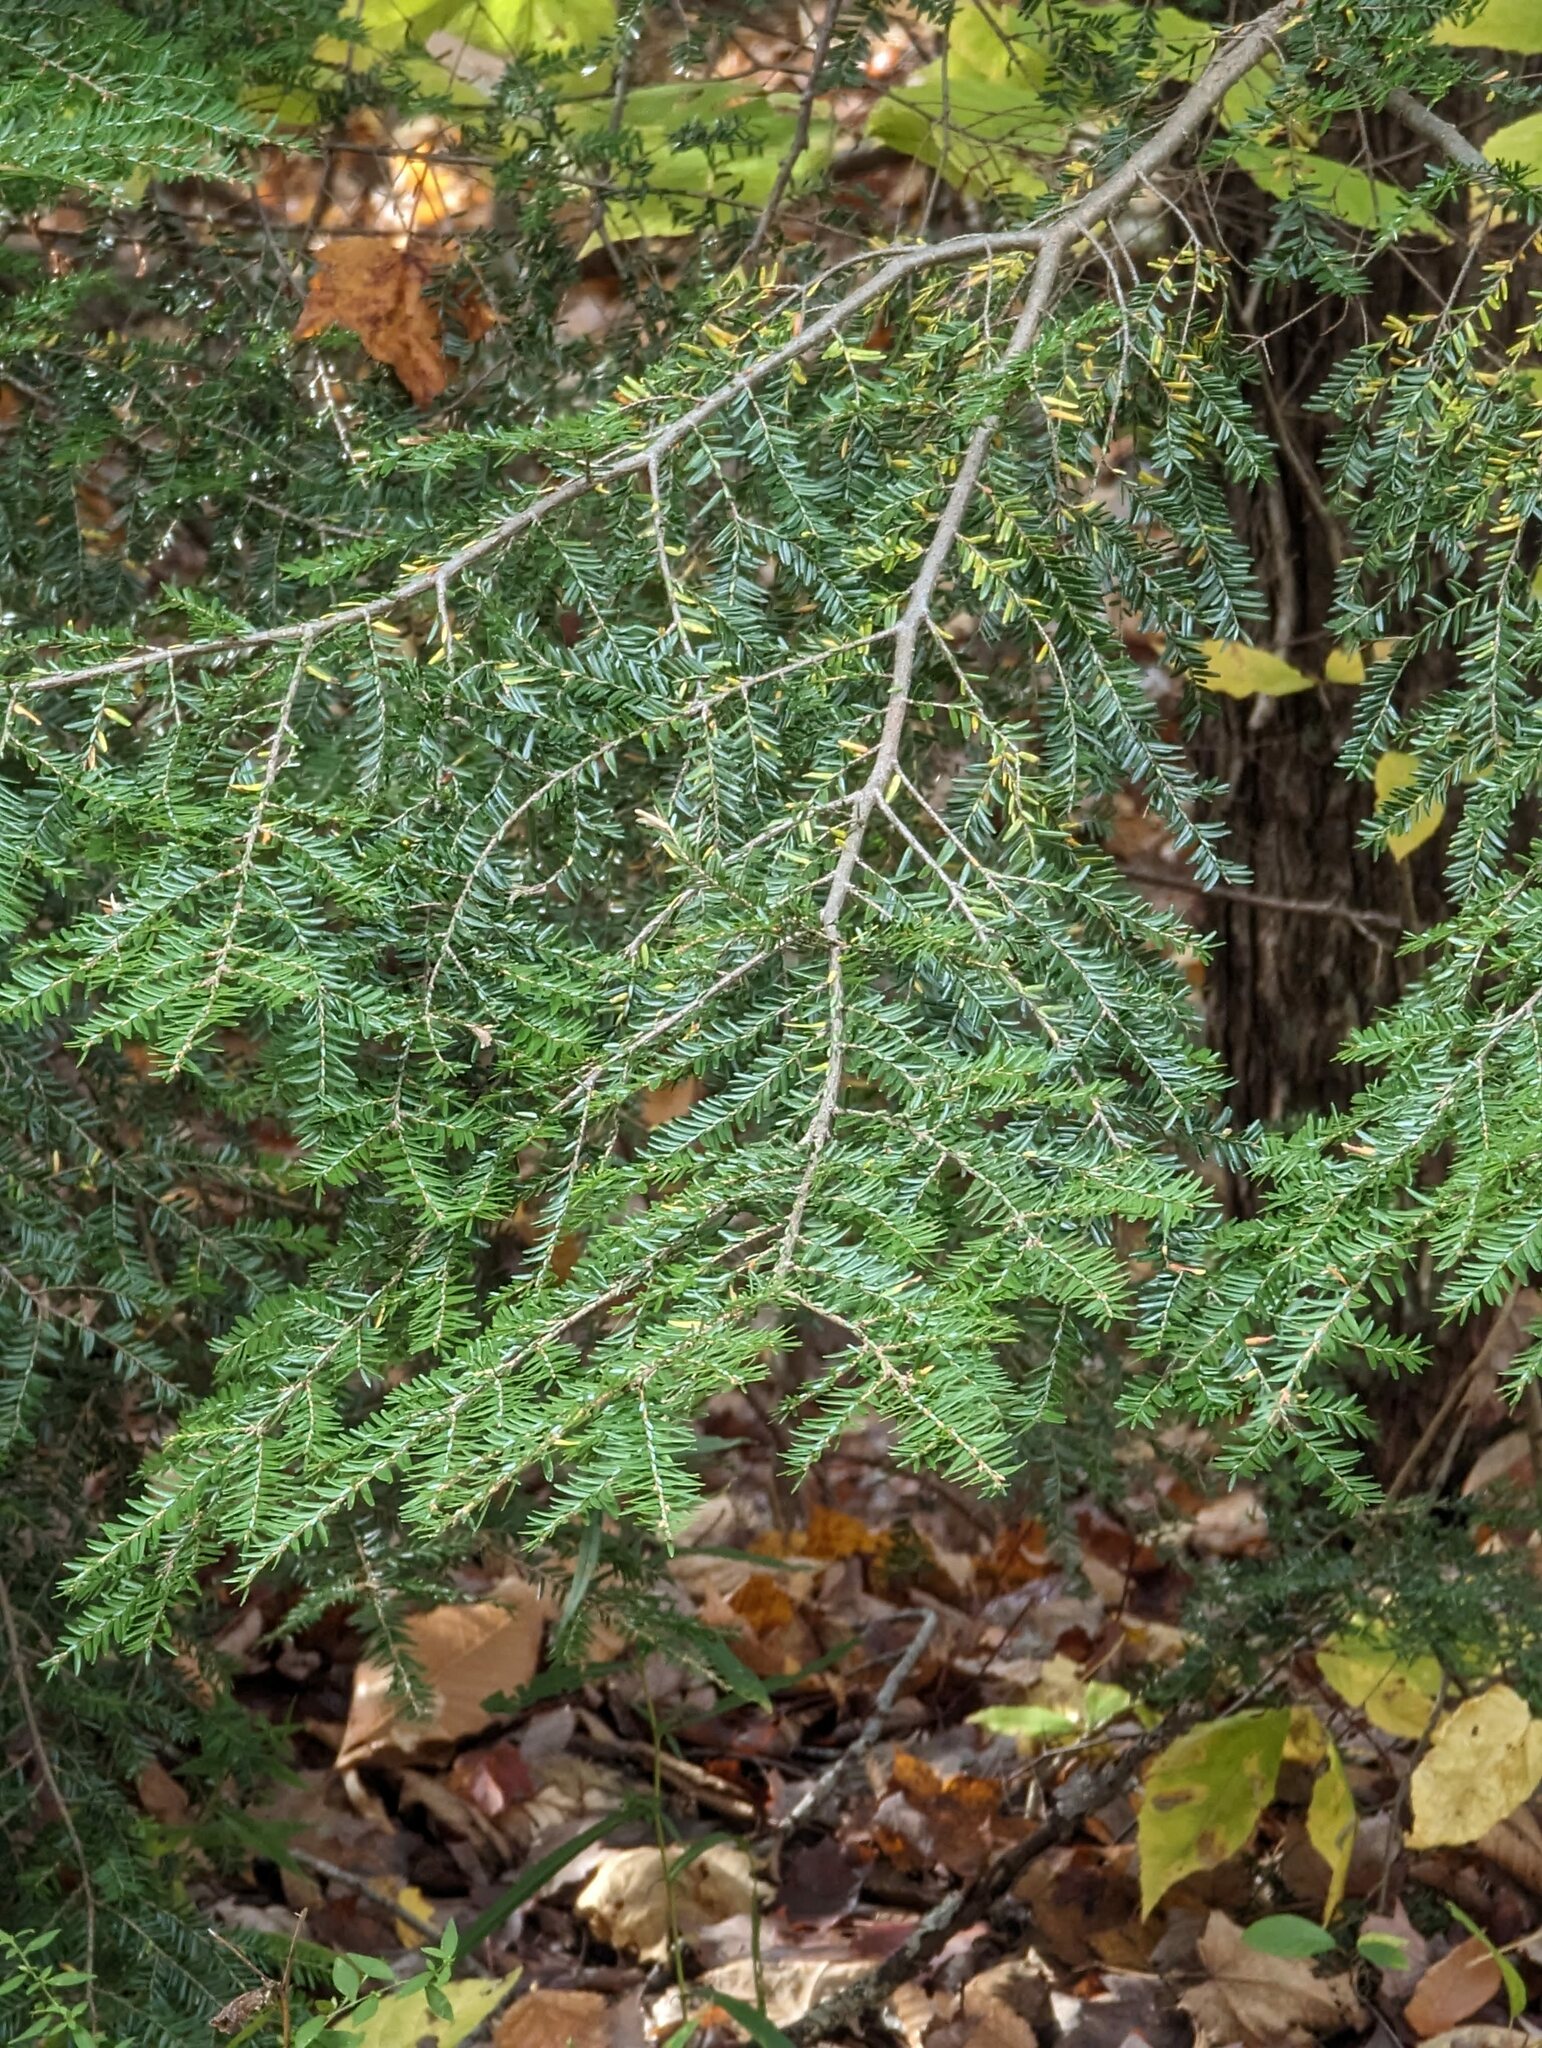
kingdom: Plantae
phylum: Tracheophyta
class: Pinopsida
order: Pinales
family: Pinaceae
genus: Tsuga
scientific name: Tsuga canadensis
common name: Eastern hemlock
